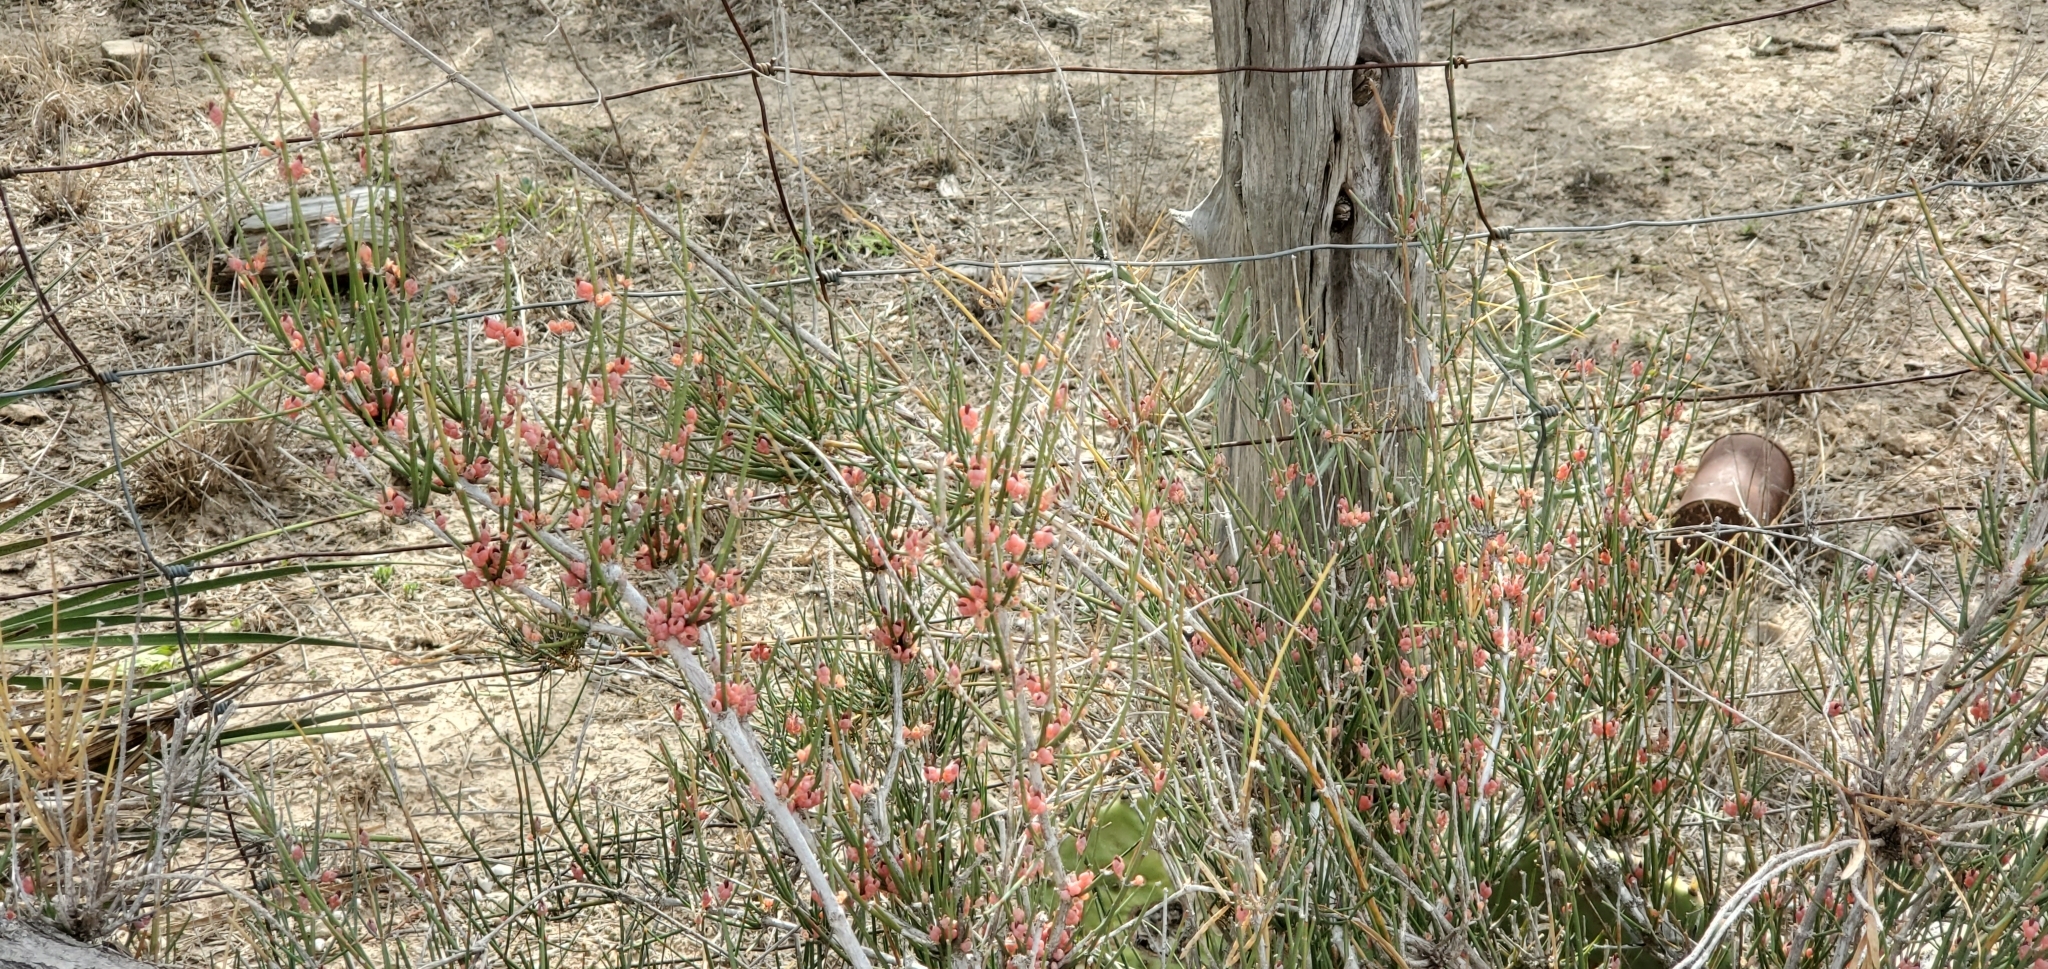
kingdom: Plantae
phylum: Tracheophyta
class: Gnetopsida
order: Ephedrales
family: Ephedraceae
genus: Ephedra
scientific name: Ephedra antisyphilitica
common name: Clipweed
